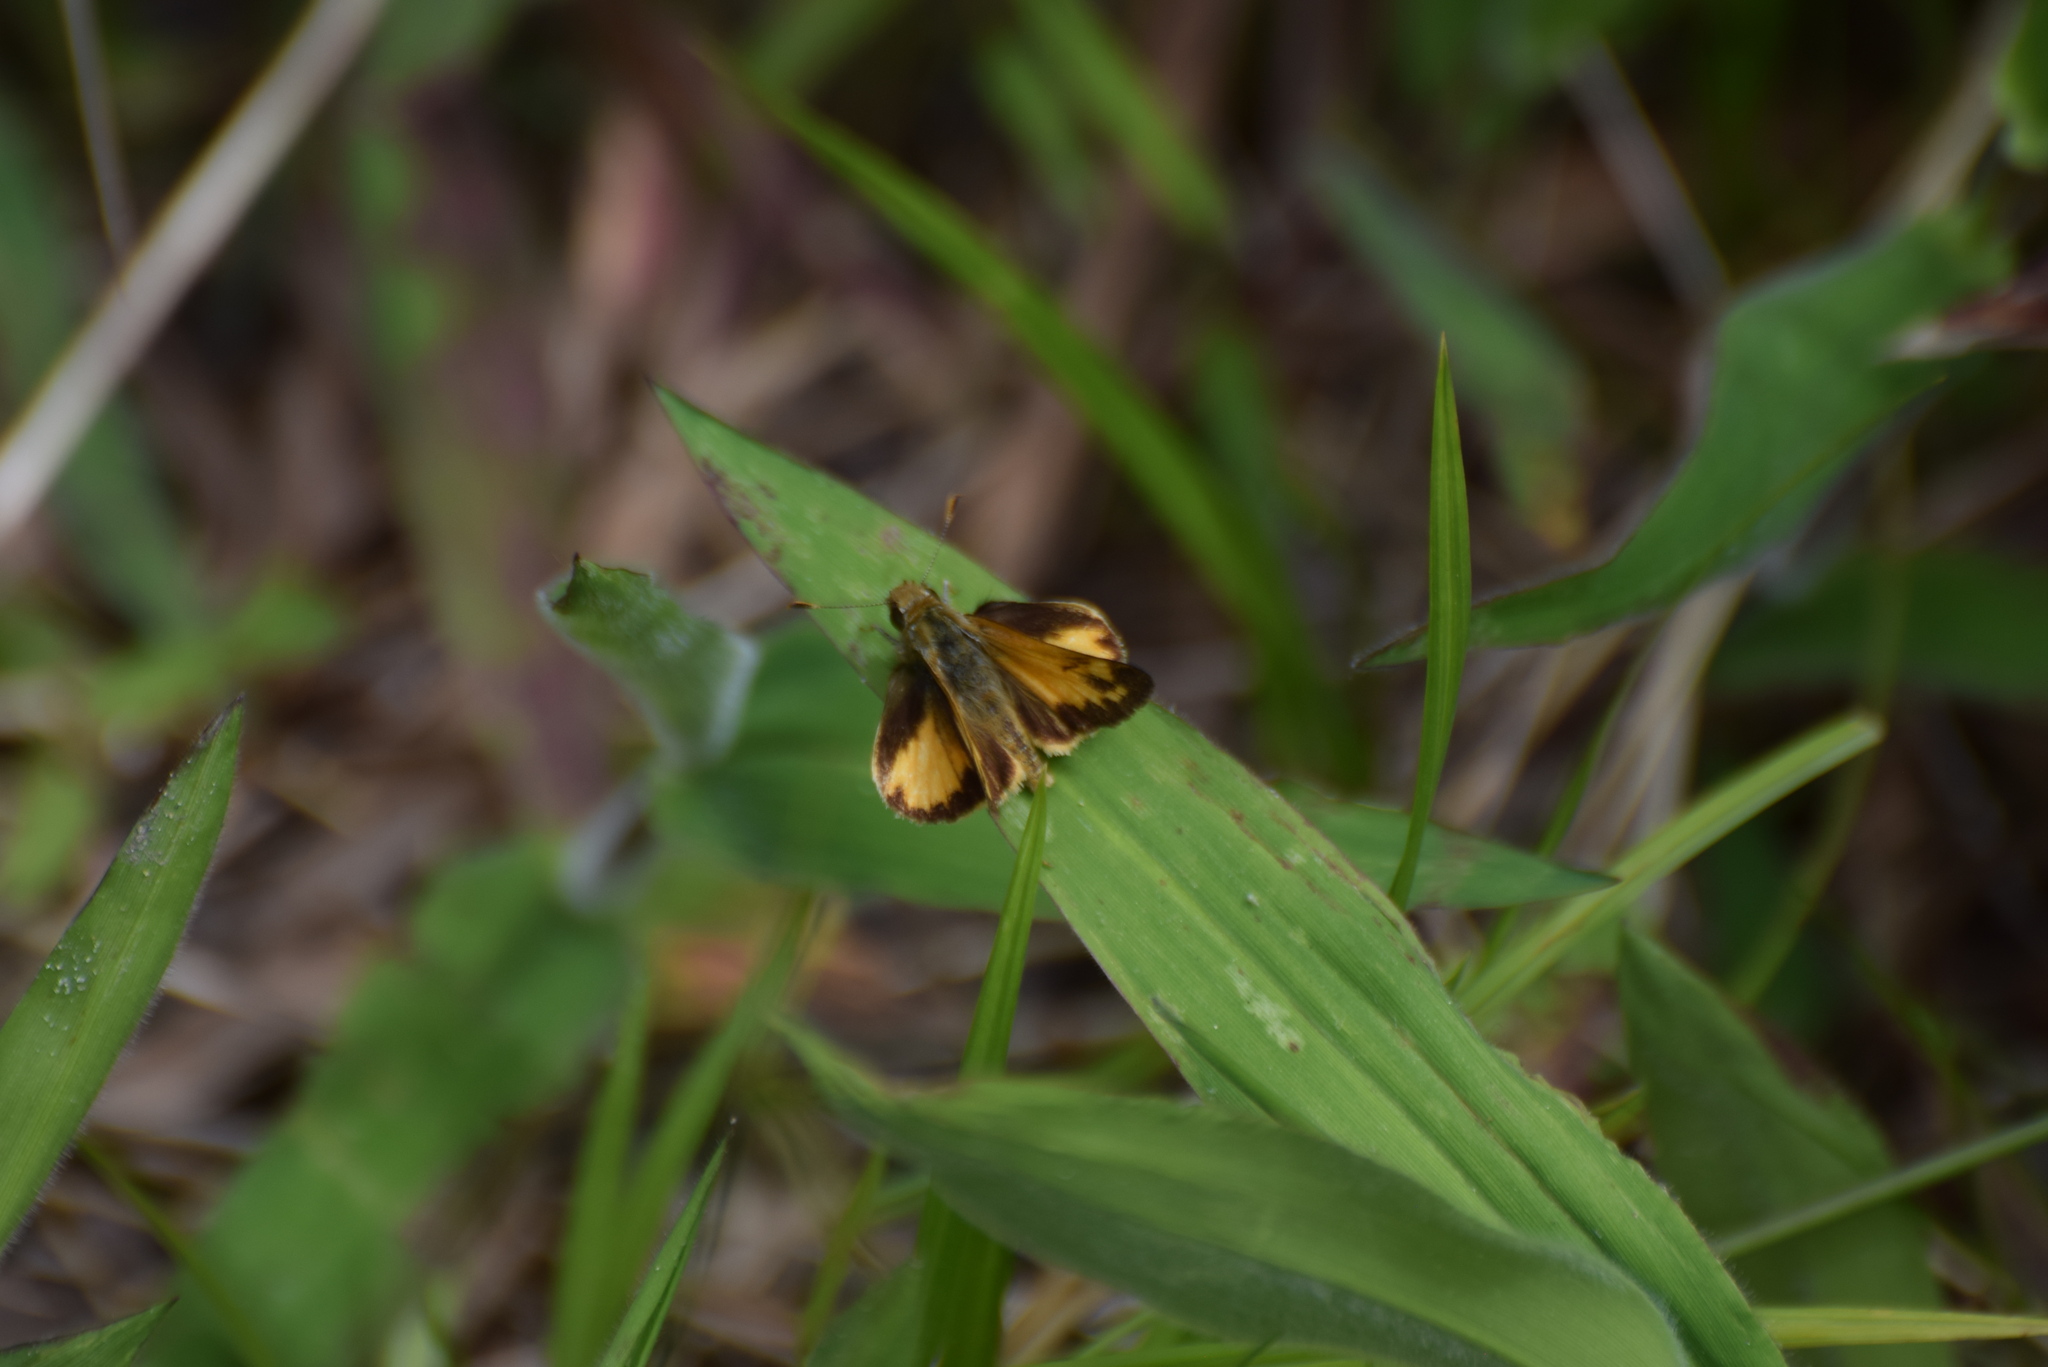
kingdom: Animalia
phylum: Arthropoda
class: Insecta
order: Lepidoptera
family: Hesperiidae
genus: Lon
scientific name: Lon zabulon
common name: Zabulon skipper
